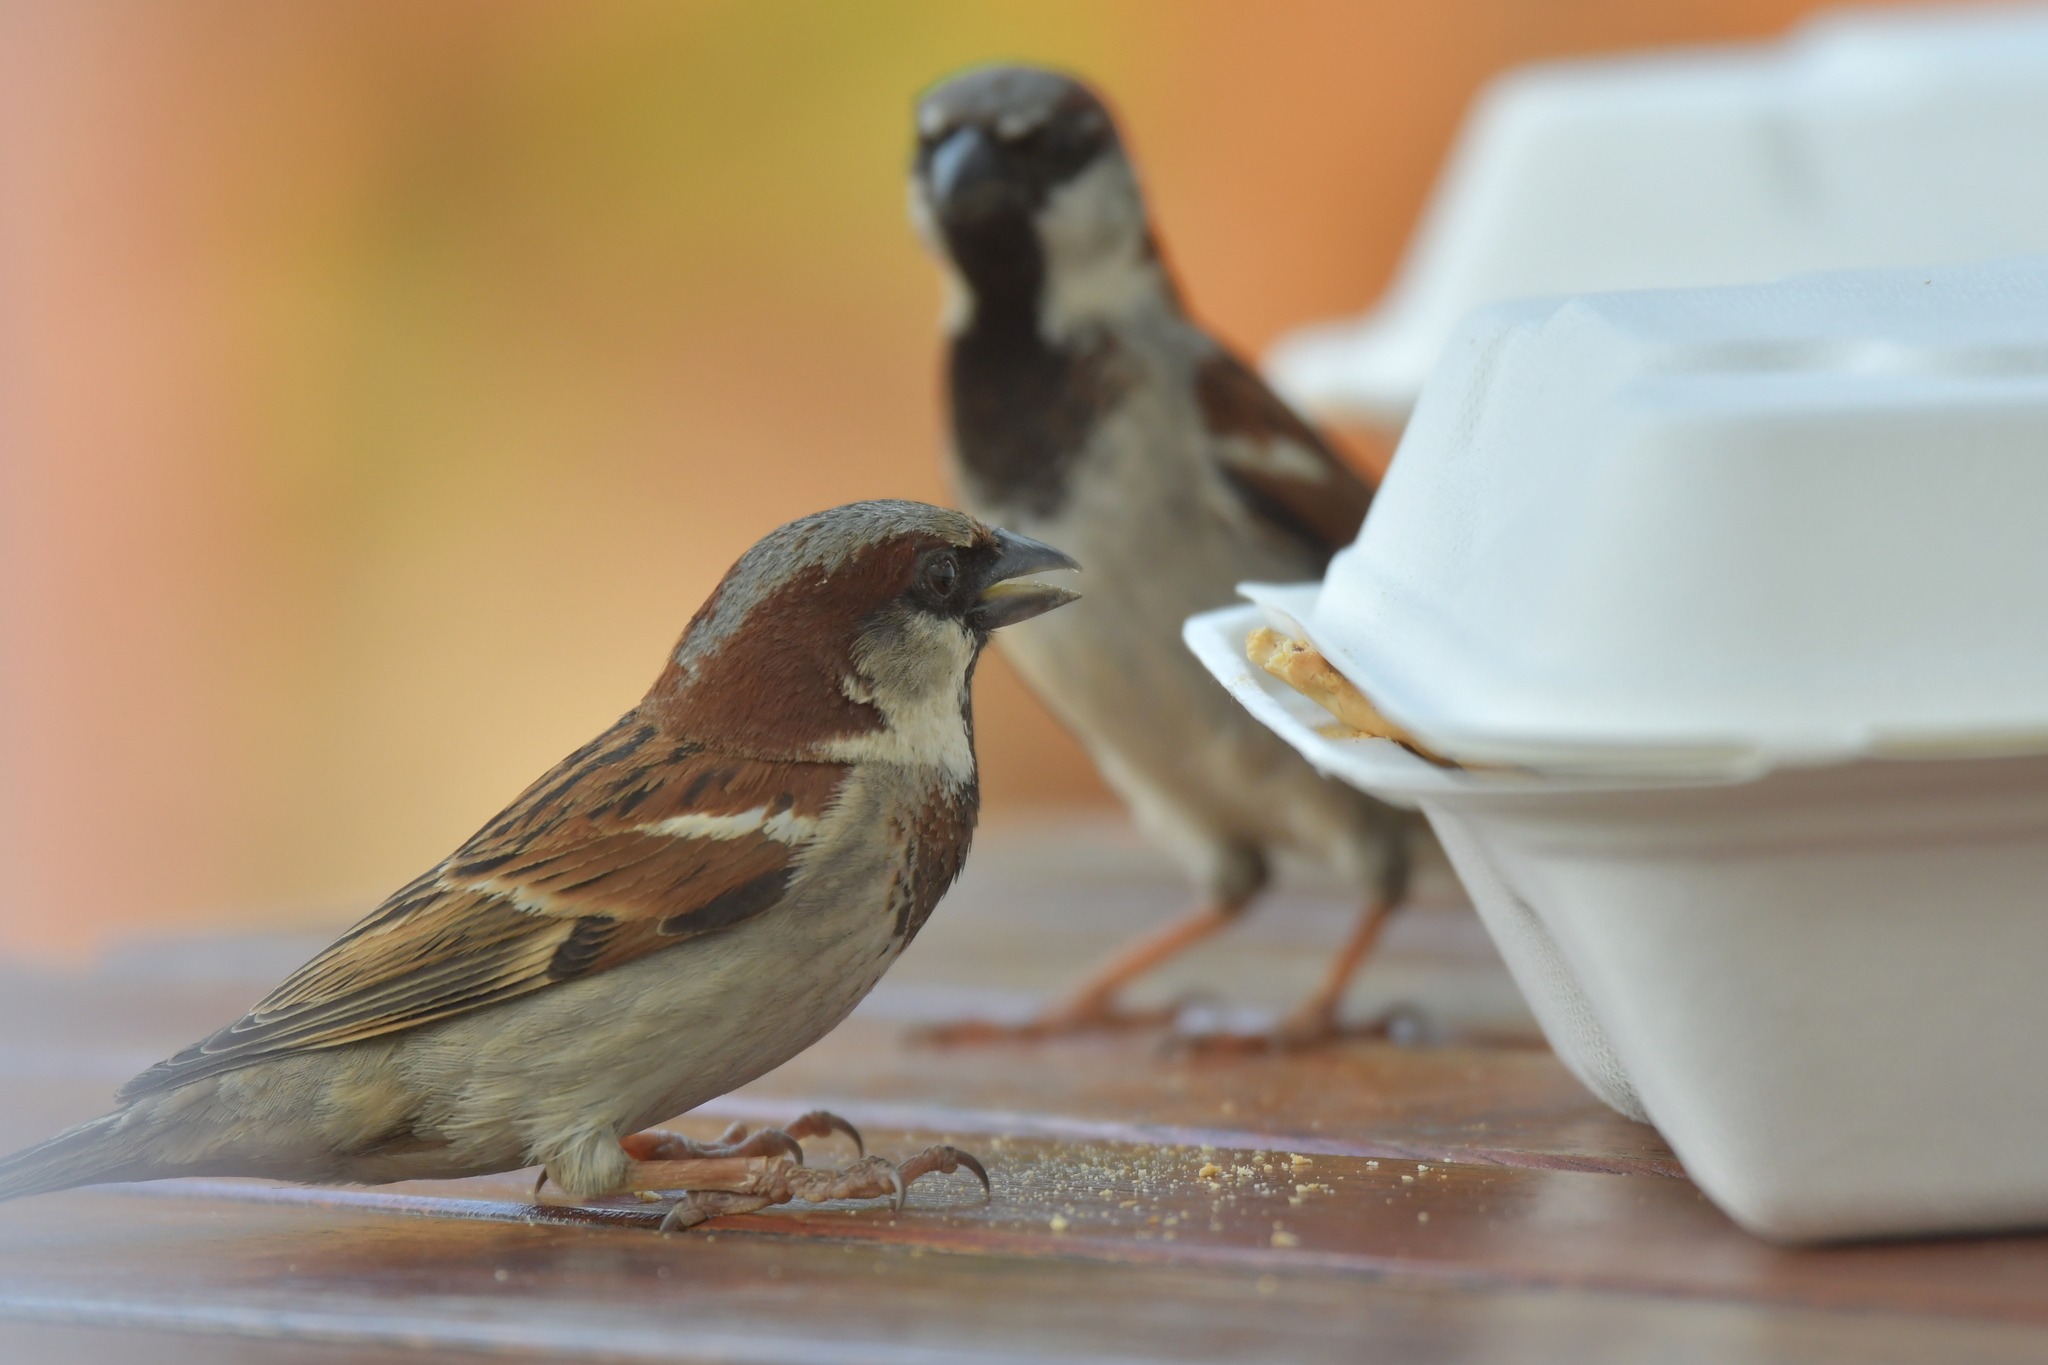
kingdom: Animalia
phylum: Chordata
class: Aves
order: Passeriformes
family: Passeridae
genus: Passer
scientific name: Passer domesticus
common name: House sparrow
